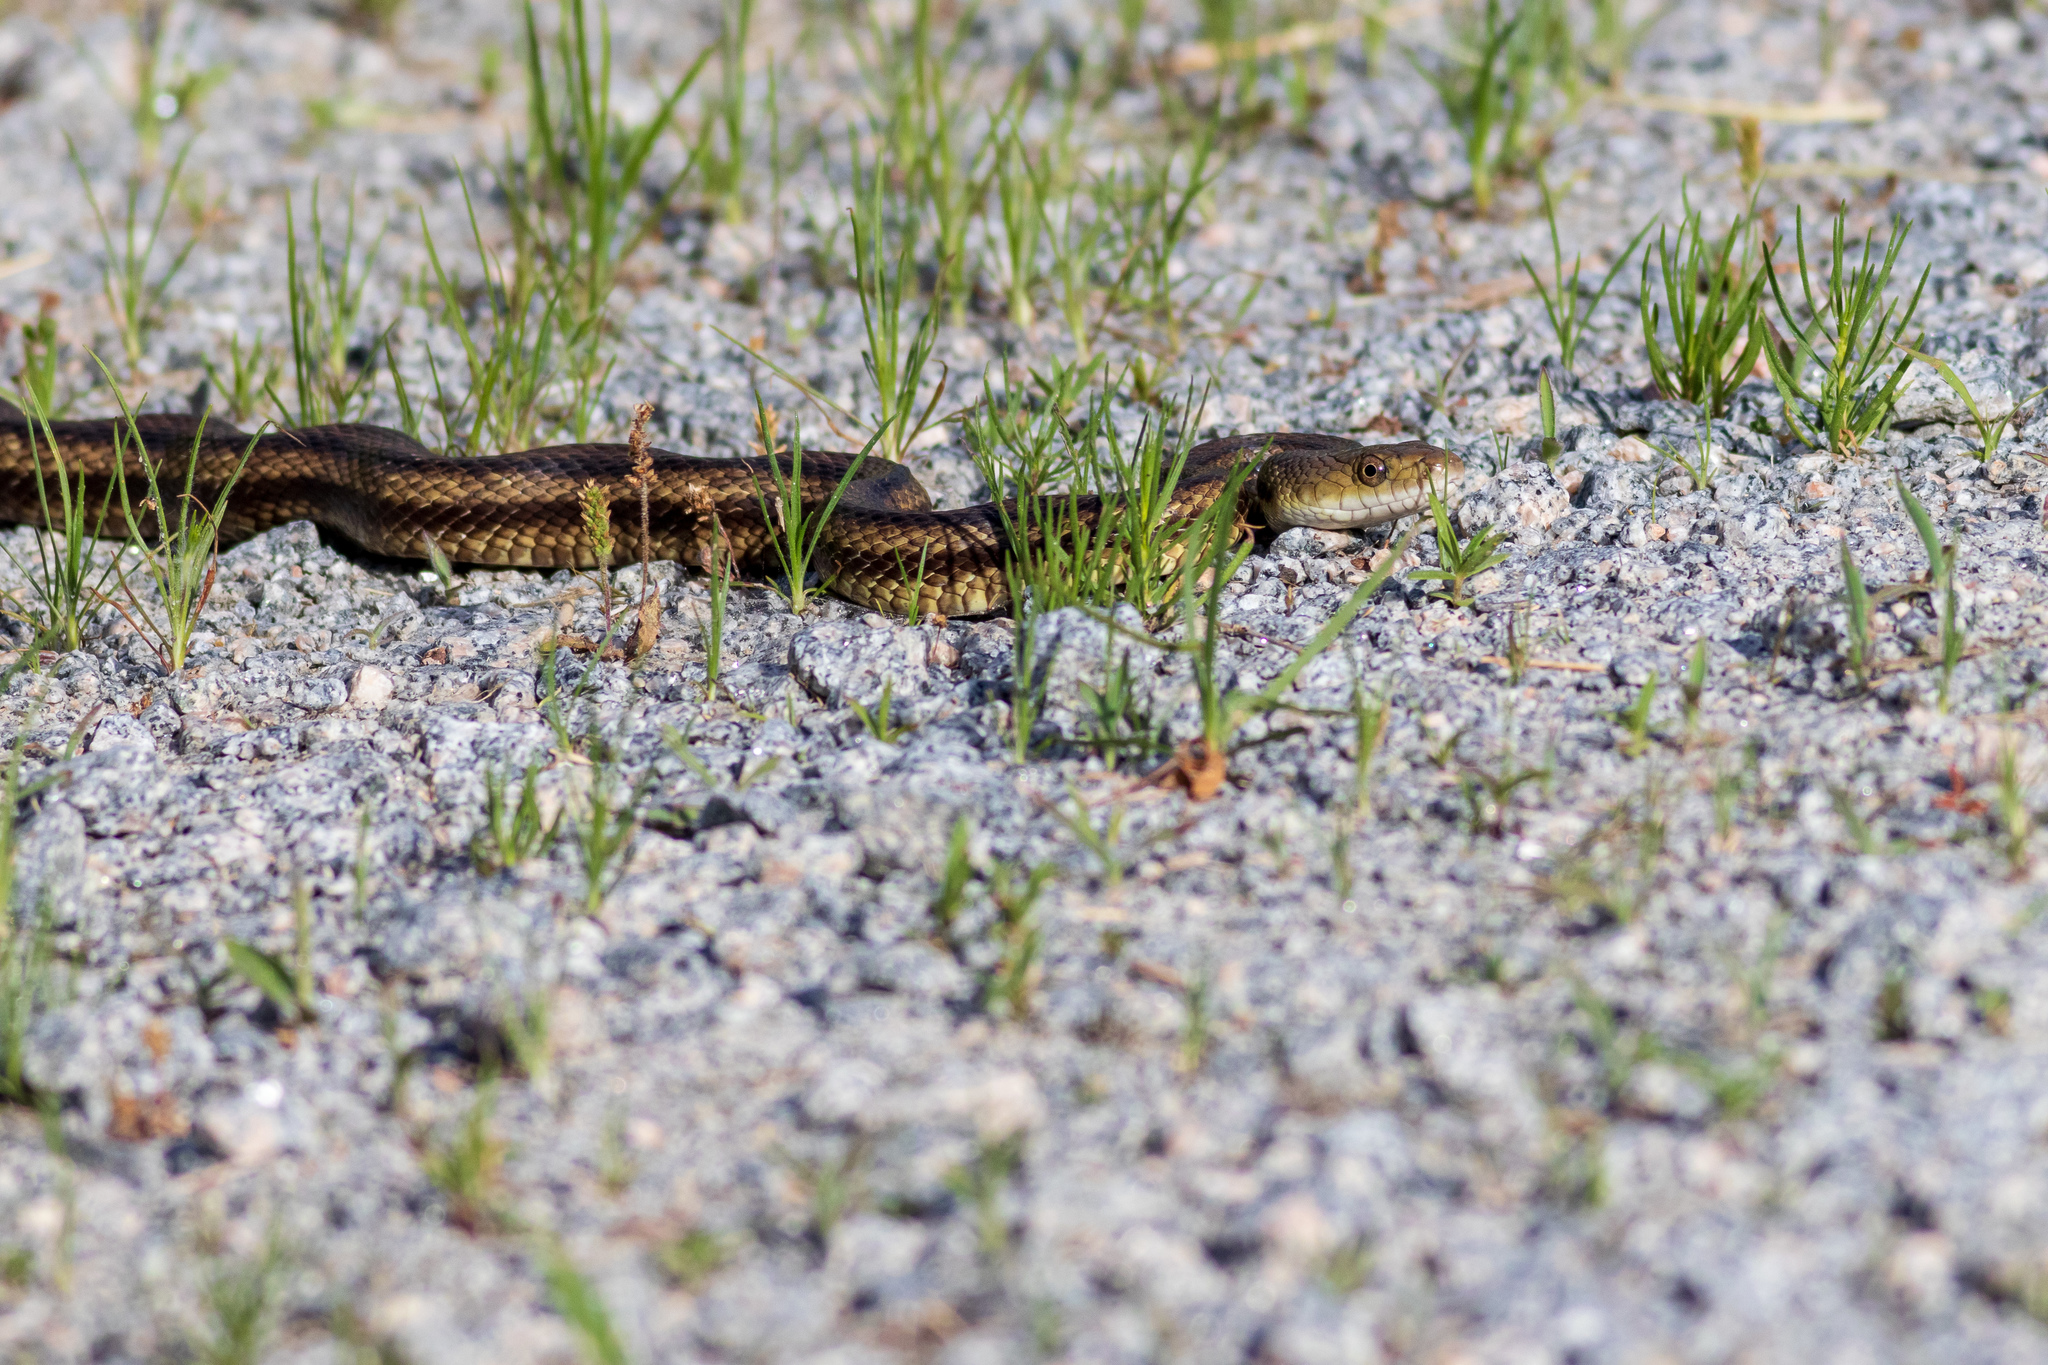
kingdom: Animalia
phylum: Chordata
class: Squamata
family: Colubridae
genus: Pantherophis
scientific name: Pantherophis alleghaniensis
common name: Eastern rat snake
